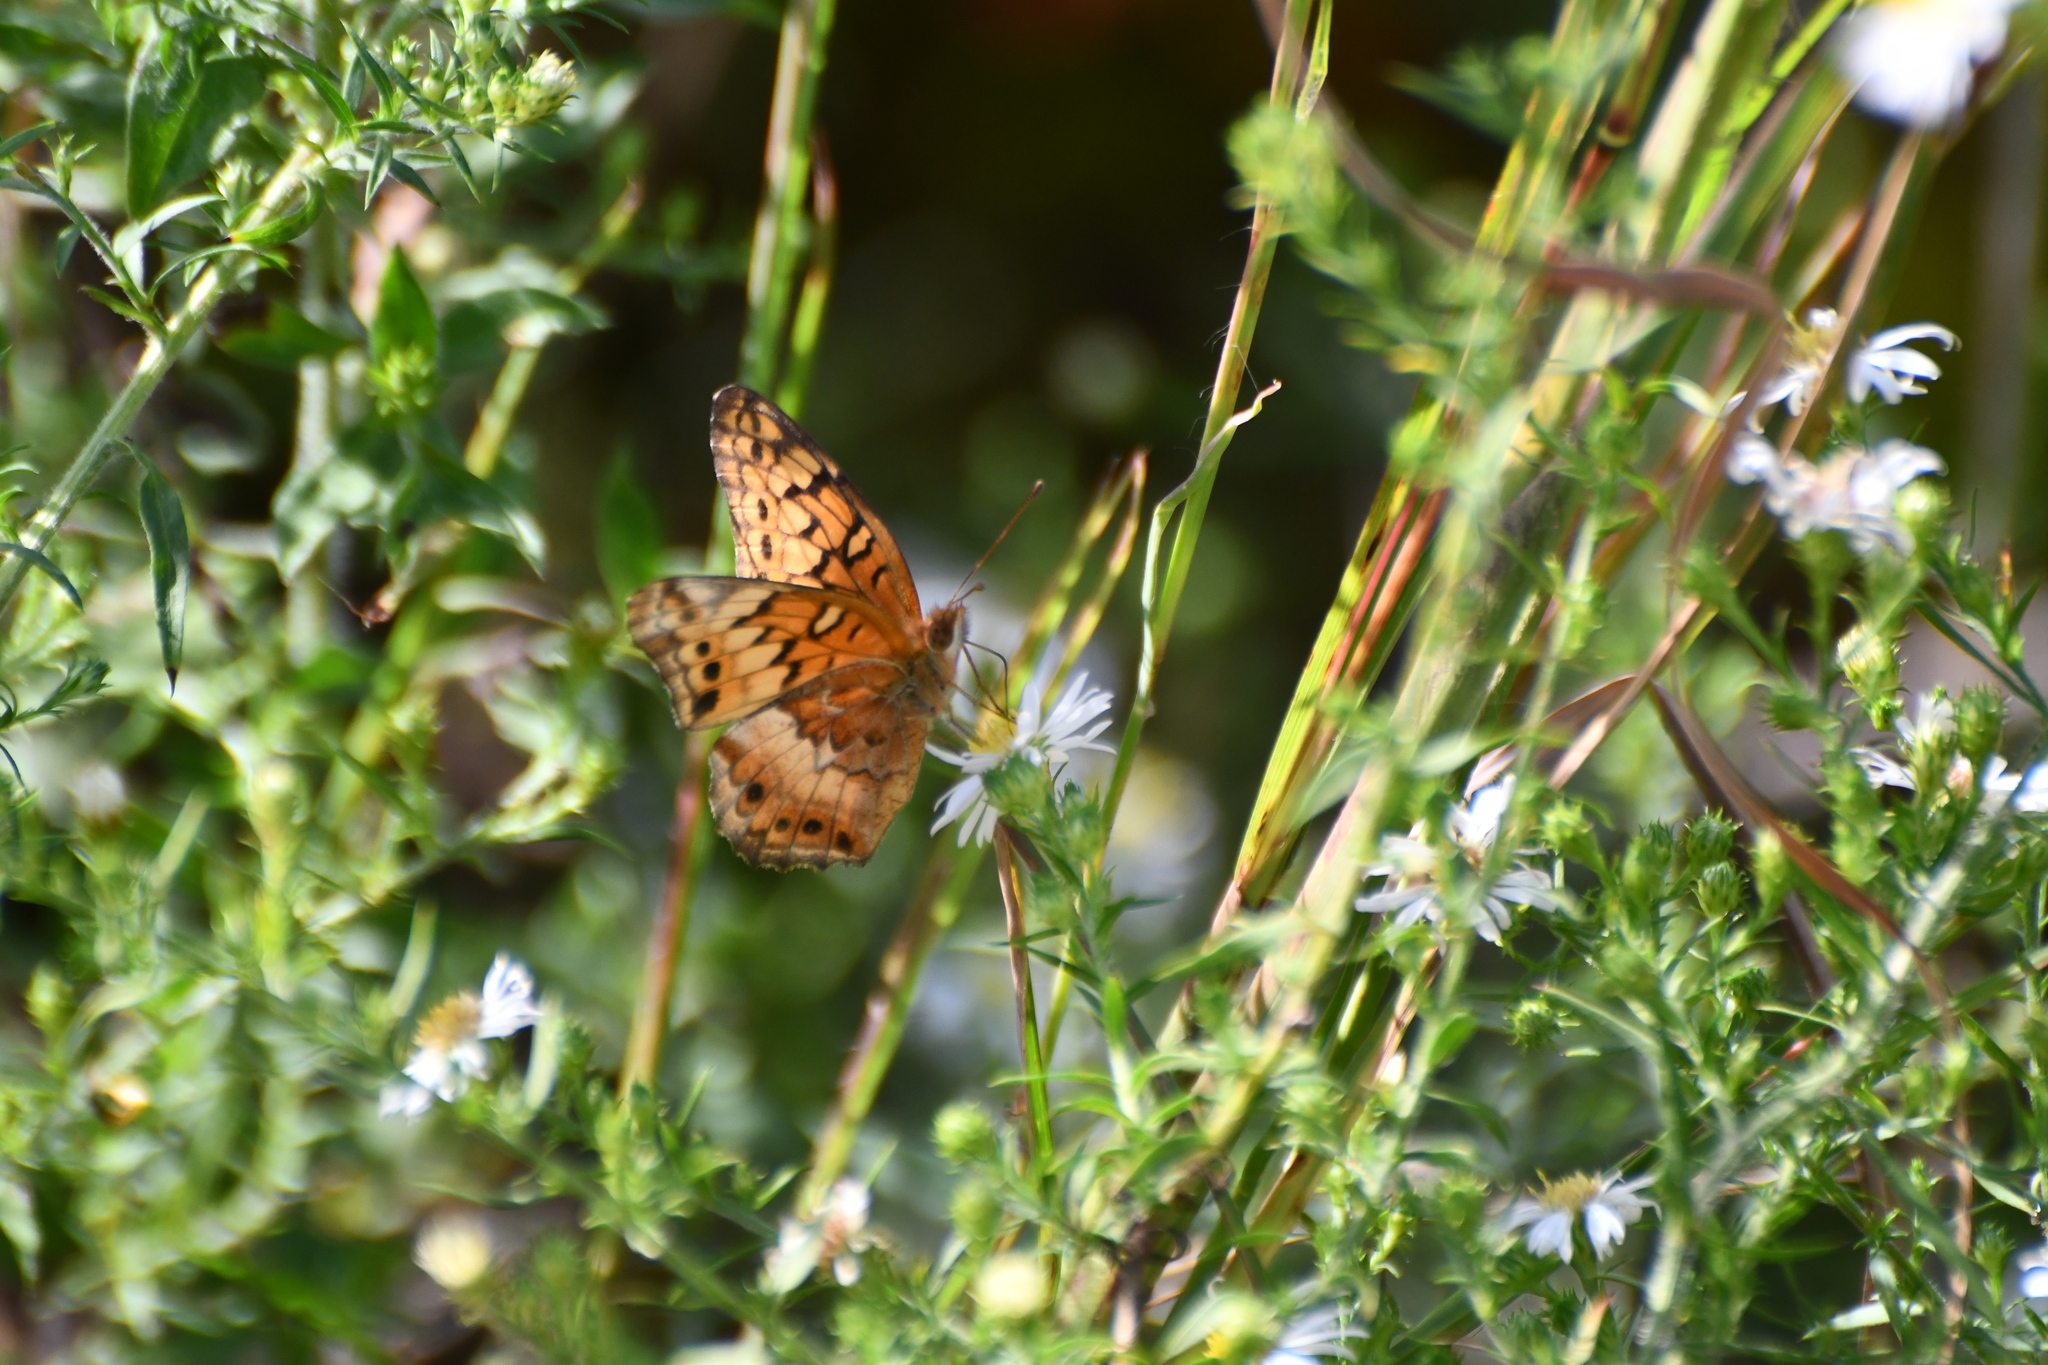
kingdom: Animalia
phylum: Arthropoda
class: Insecta
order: Lepidoptera
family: Nymphalidae
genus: Euptoieta
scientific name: Euptoieta claudia
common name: Variegated fritillary
